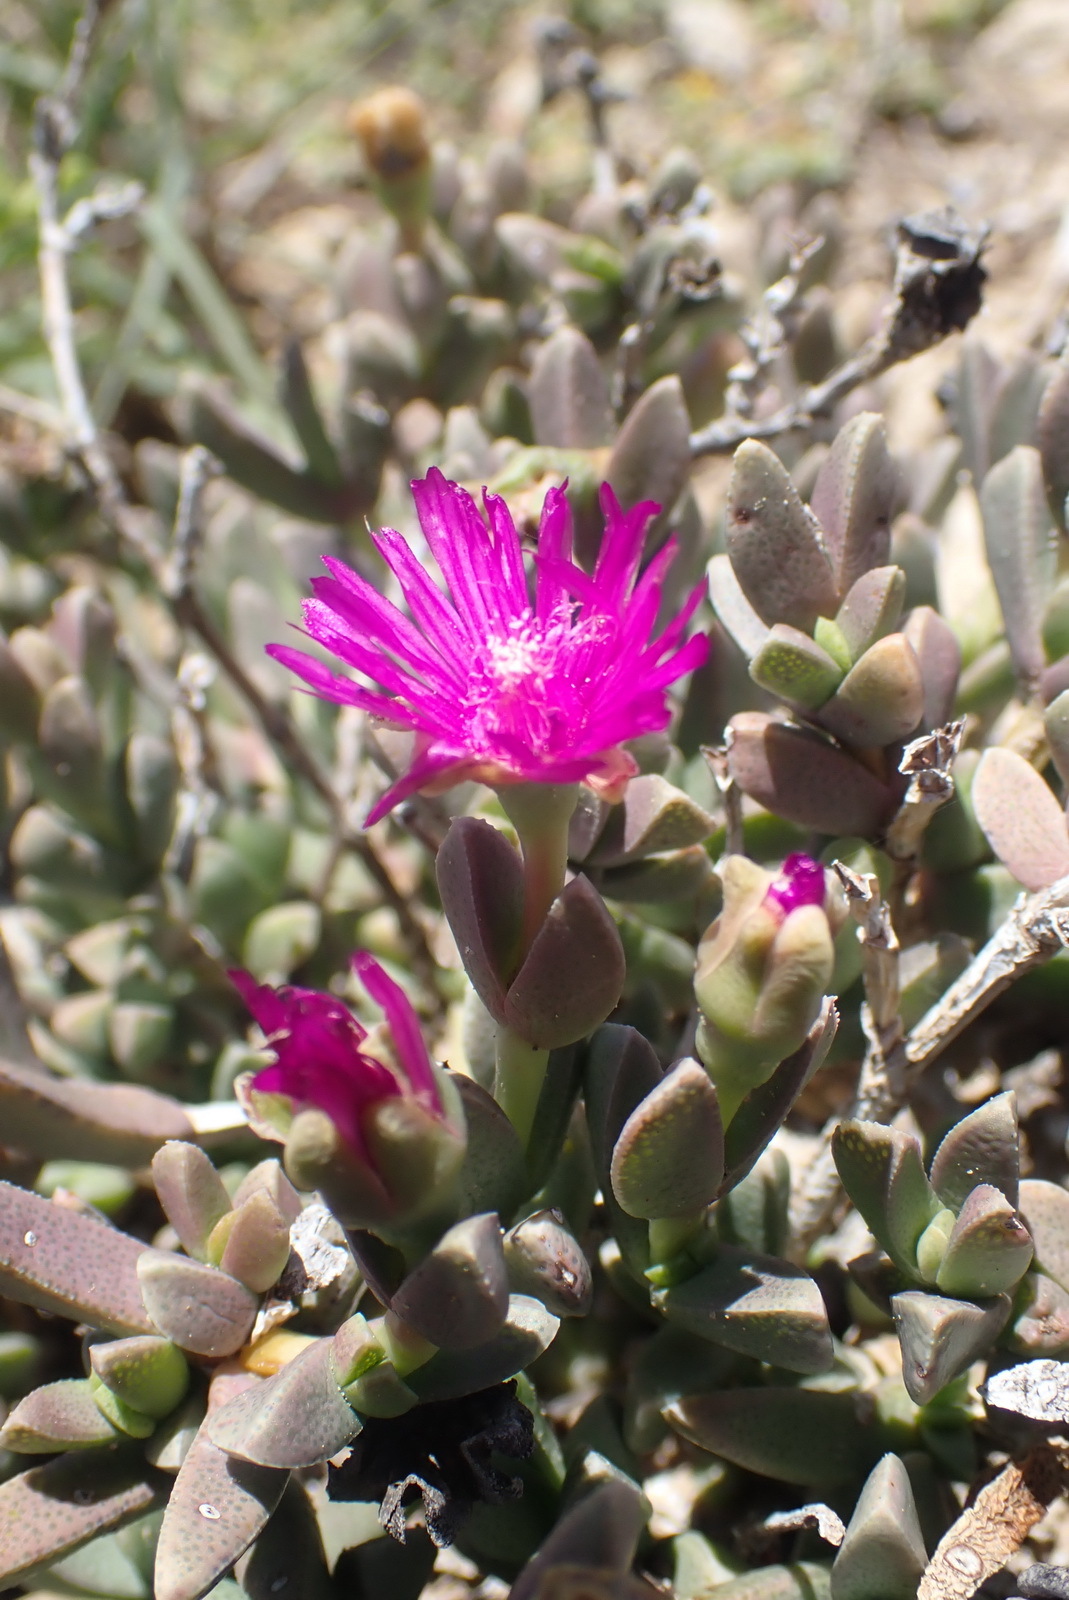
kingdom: Plantae
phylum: Tracheophyta
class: Magnoliopsida
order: Caryophyllales
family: Aizoaceae
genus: Ruschia
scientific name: Ruschia cymbifolia
